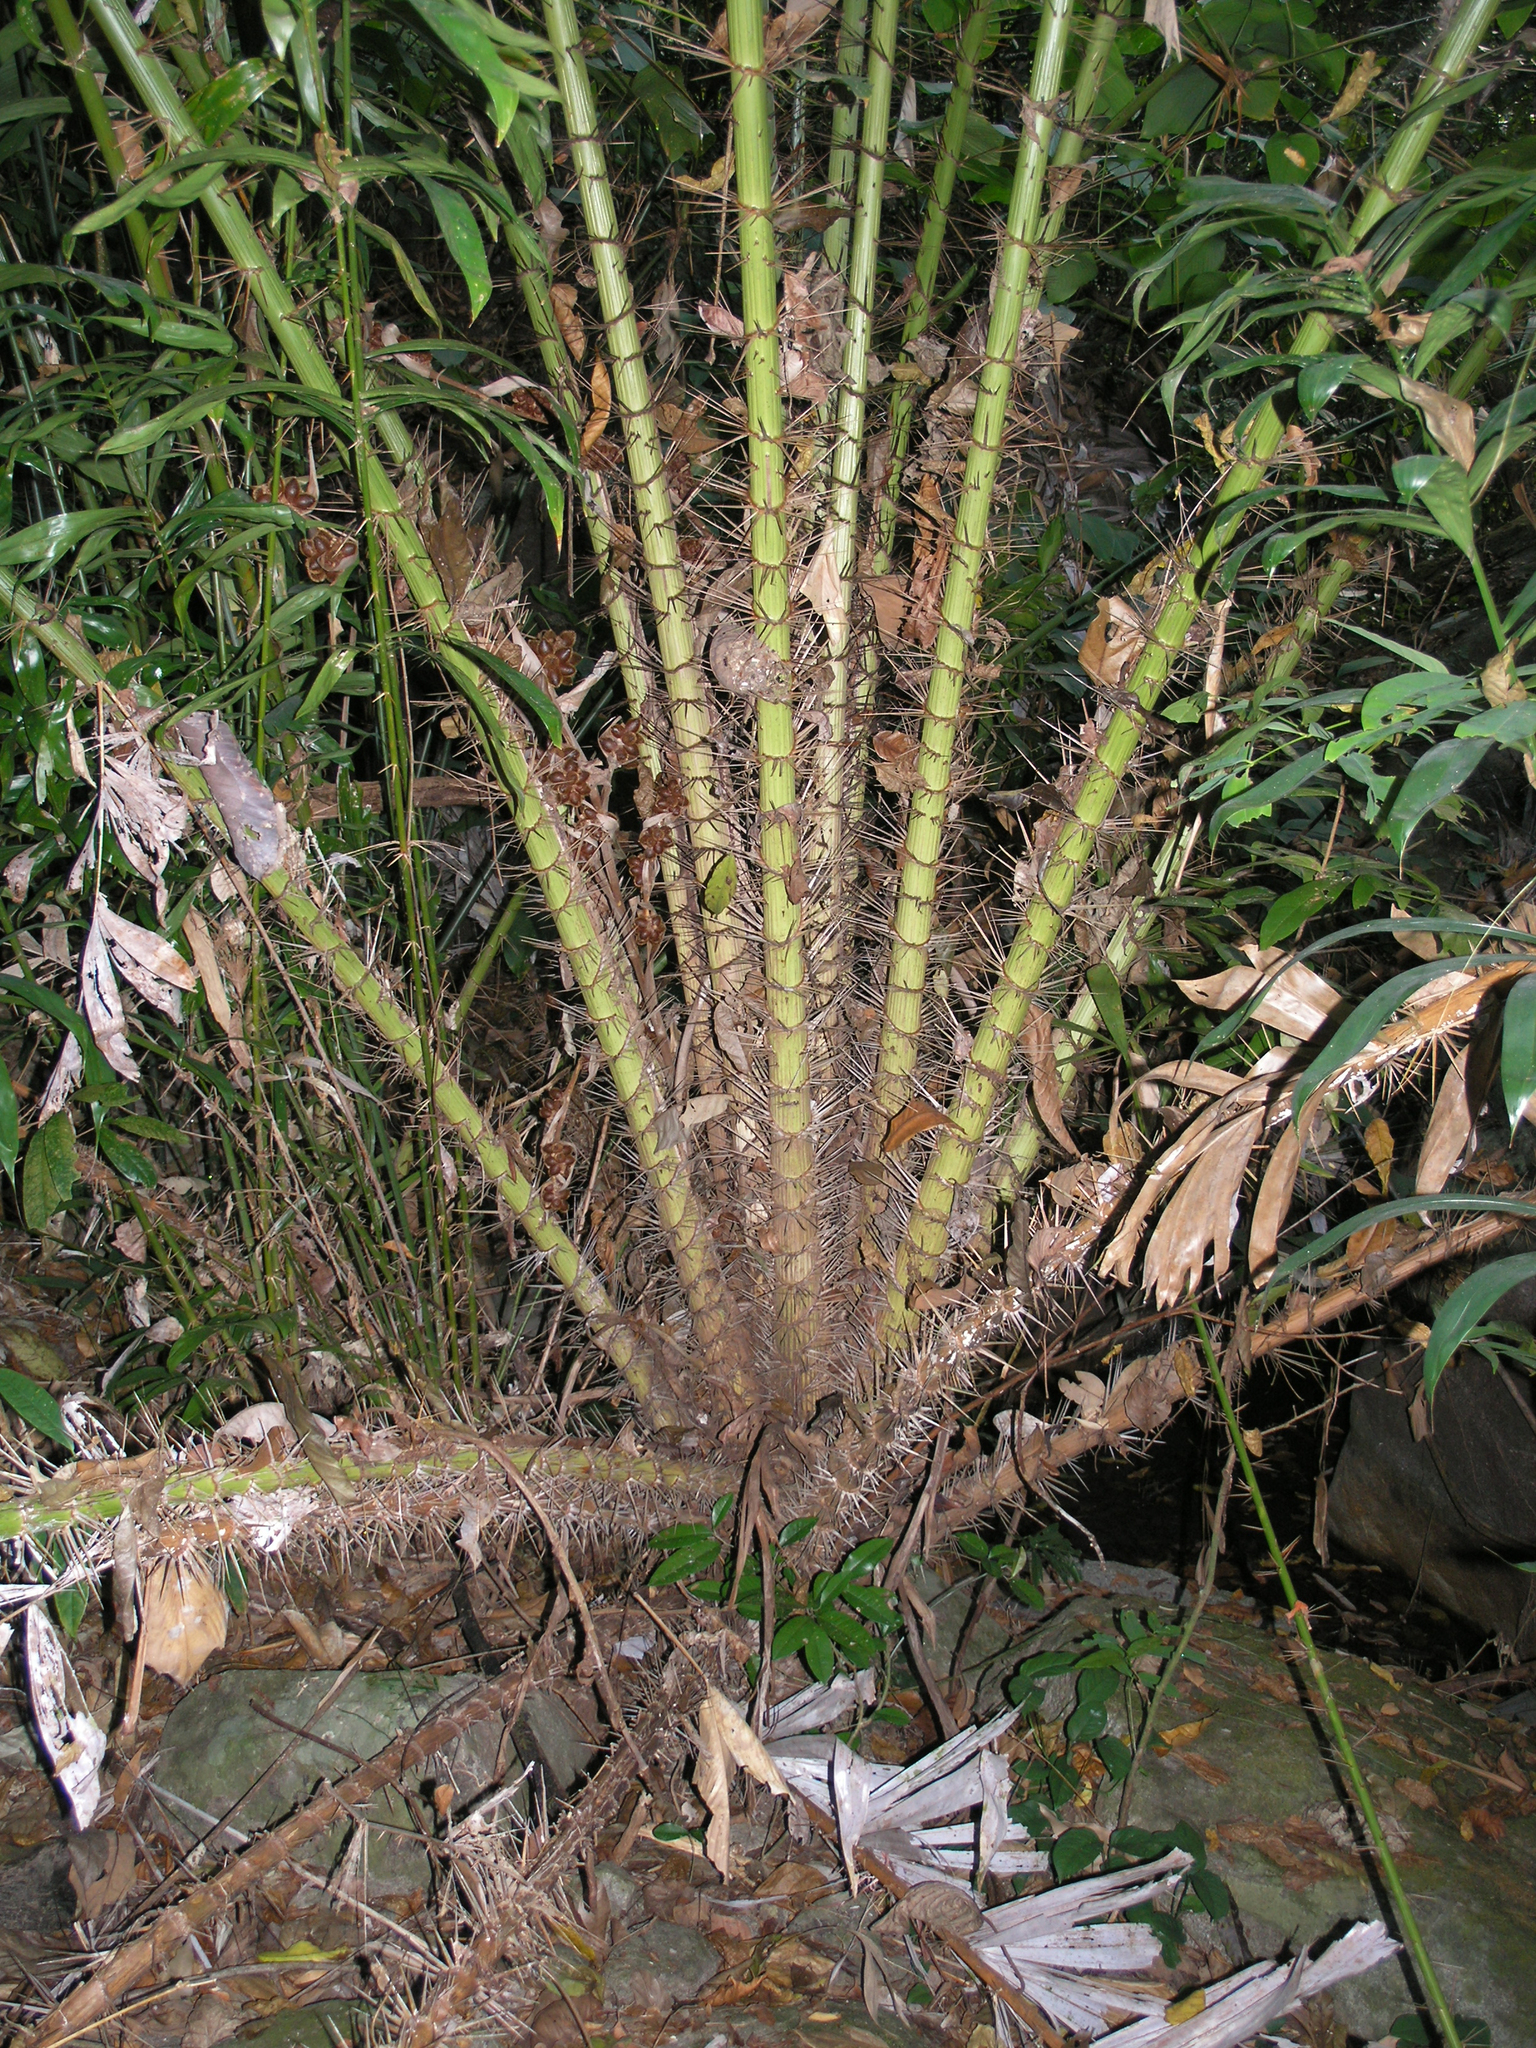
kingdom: Plantae
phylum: Tracheophyta
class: Liliopsida
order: Arecales
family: Arecaceae
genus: Calamus
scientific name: Calamus viminalis
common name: Osier-like rattan palm
